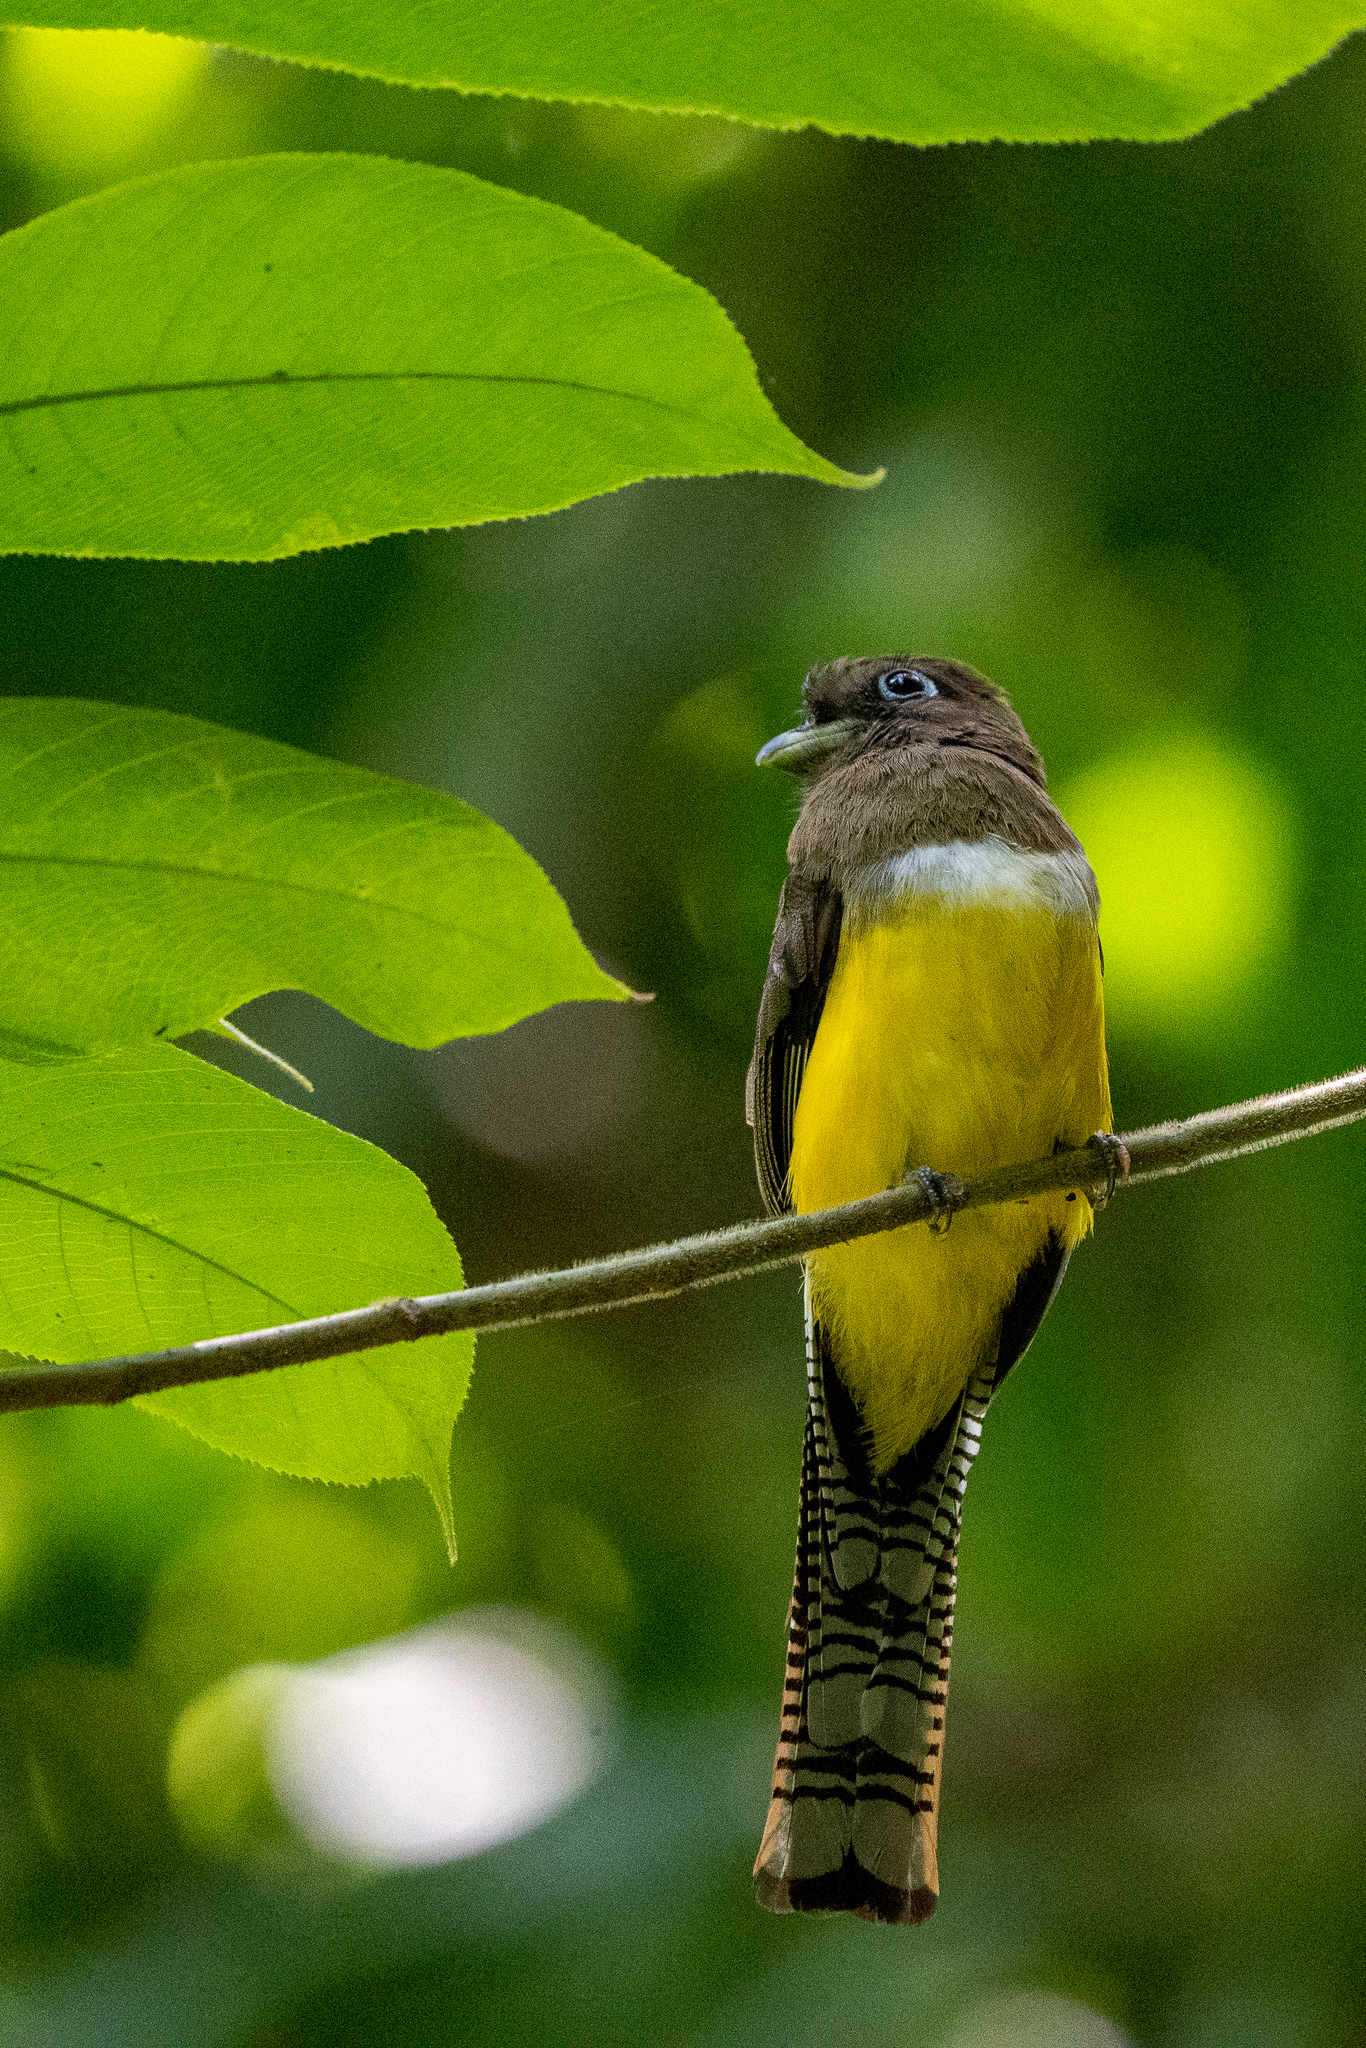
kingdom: Animalia
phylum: Chordata
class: Aves
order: Trogoniformes
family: Trogonidae
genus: Trogon
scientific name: Trogon rufus
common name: Black-throated trogon
